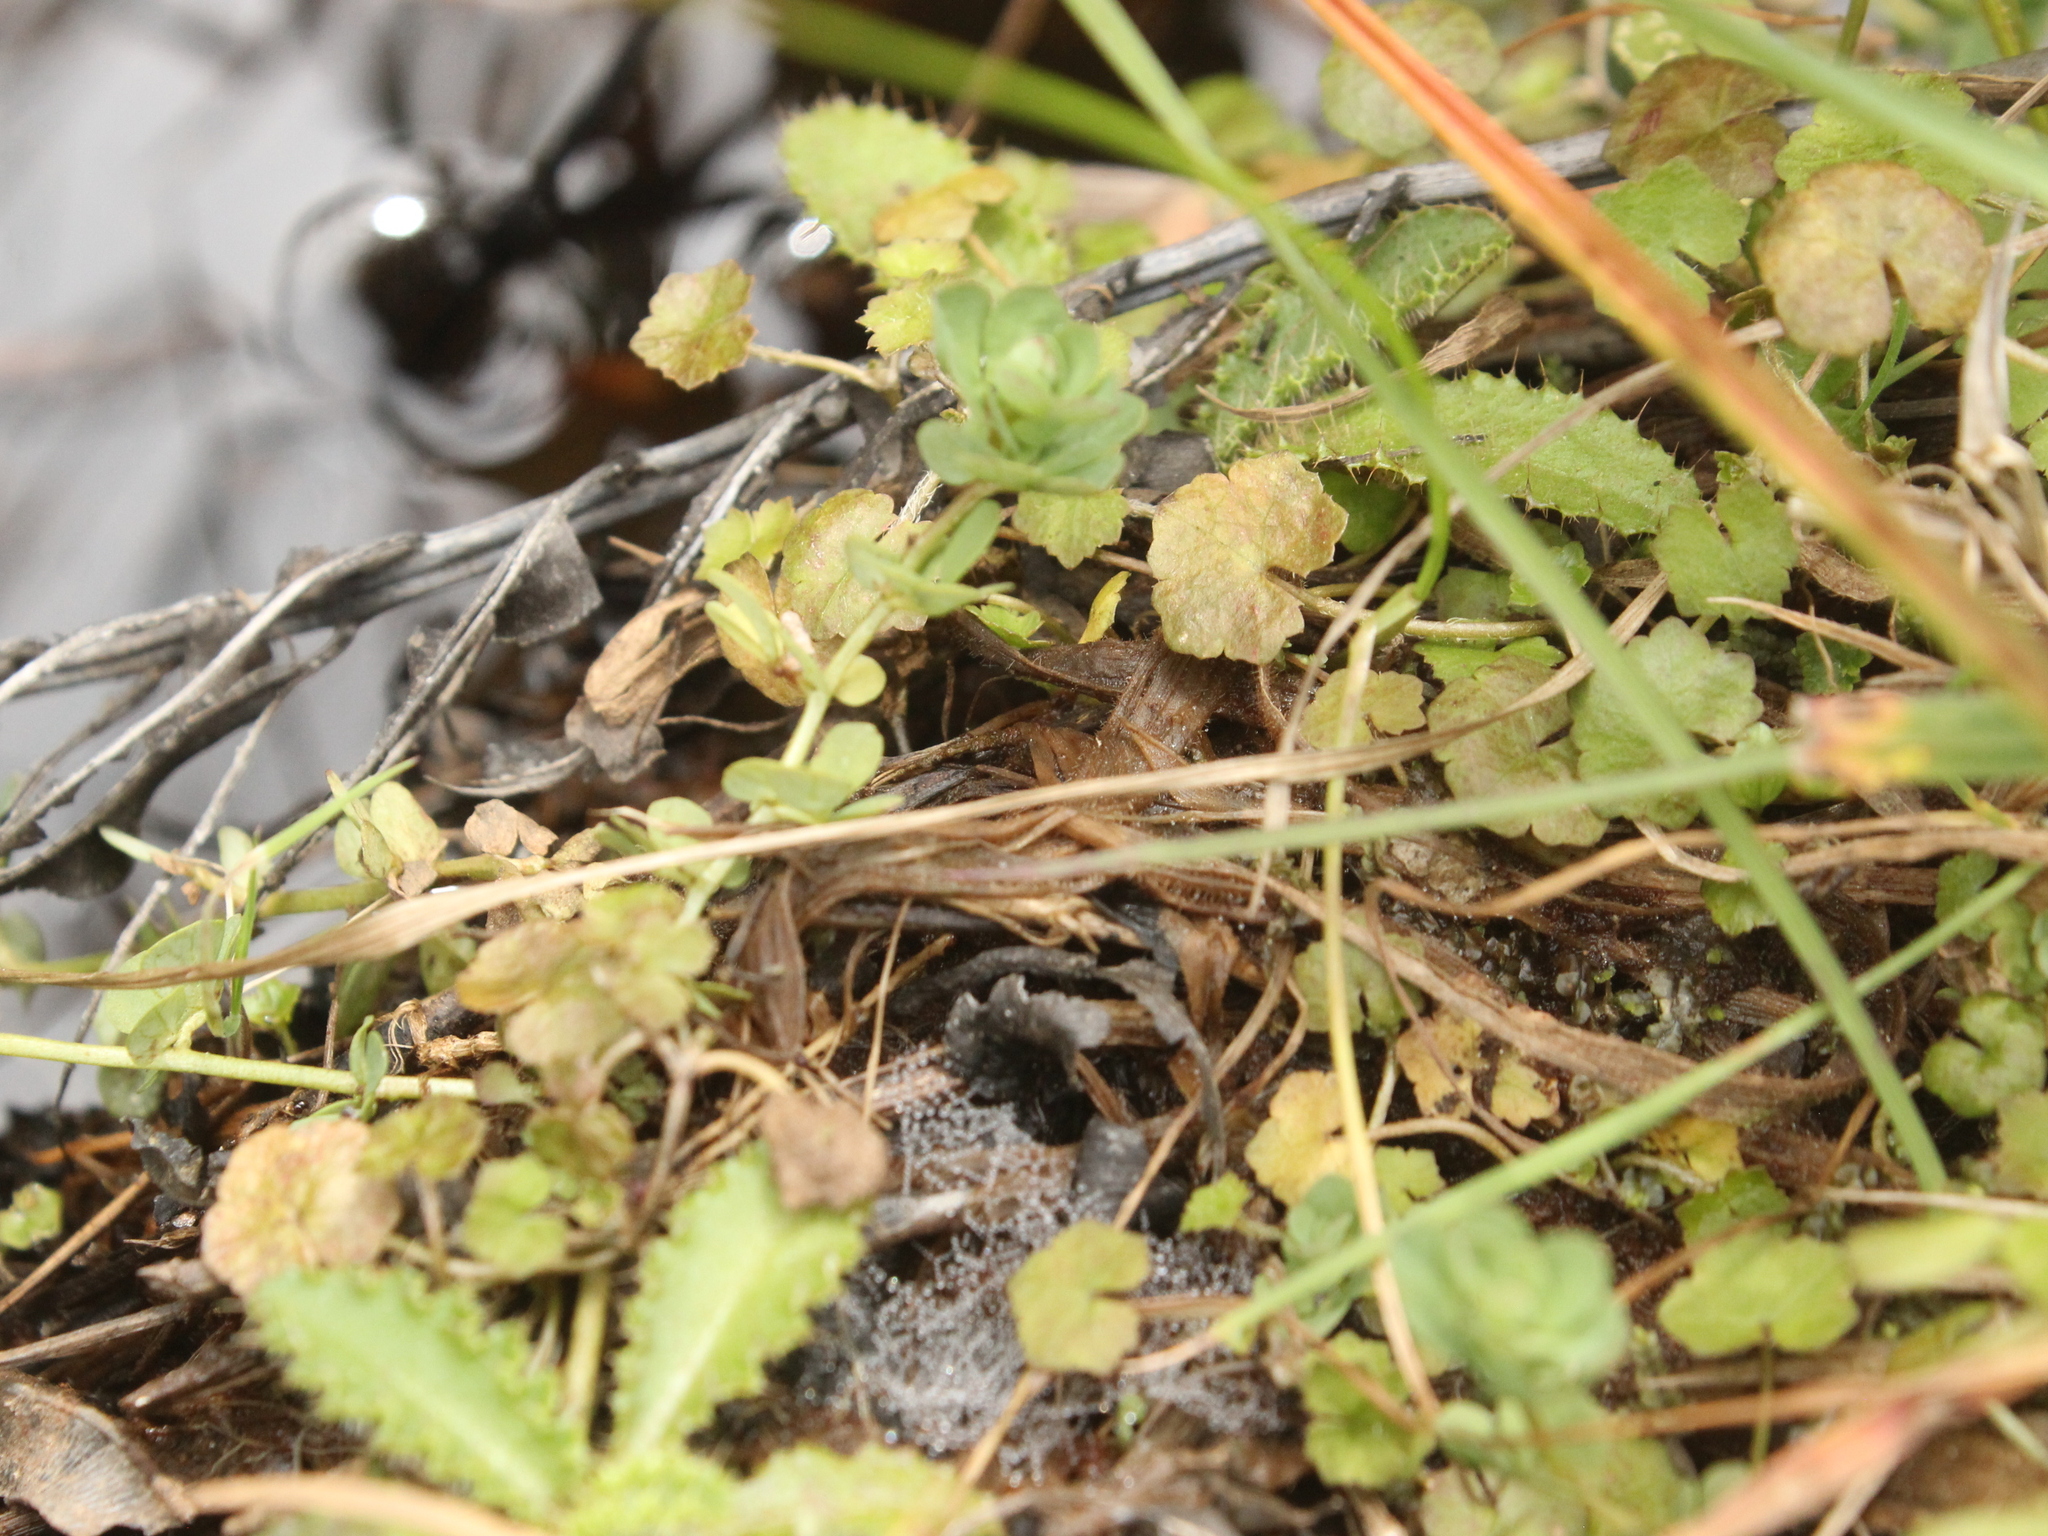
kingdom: Plantae
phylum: Tracheophyta
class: Magnoliopsida
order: Apiales
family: Araliaceae
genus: Hydrocotyle
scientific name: Hydrocotyle novae-zeelandiae
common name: New zealand pennywort
